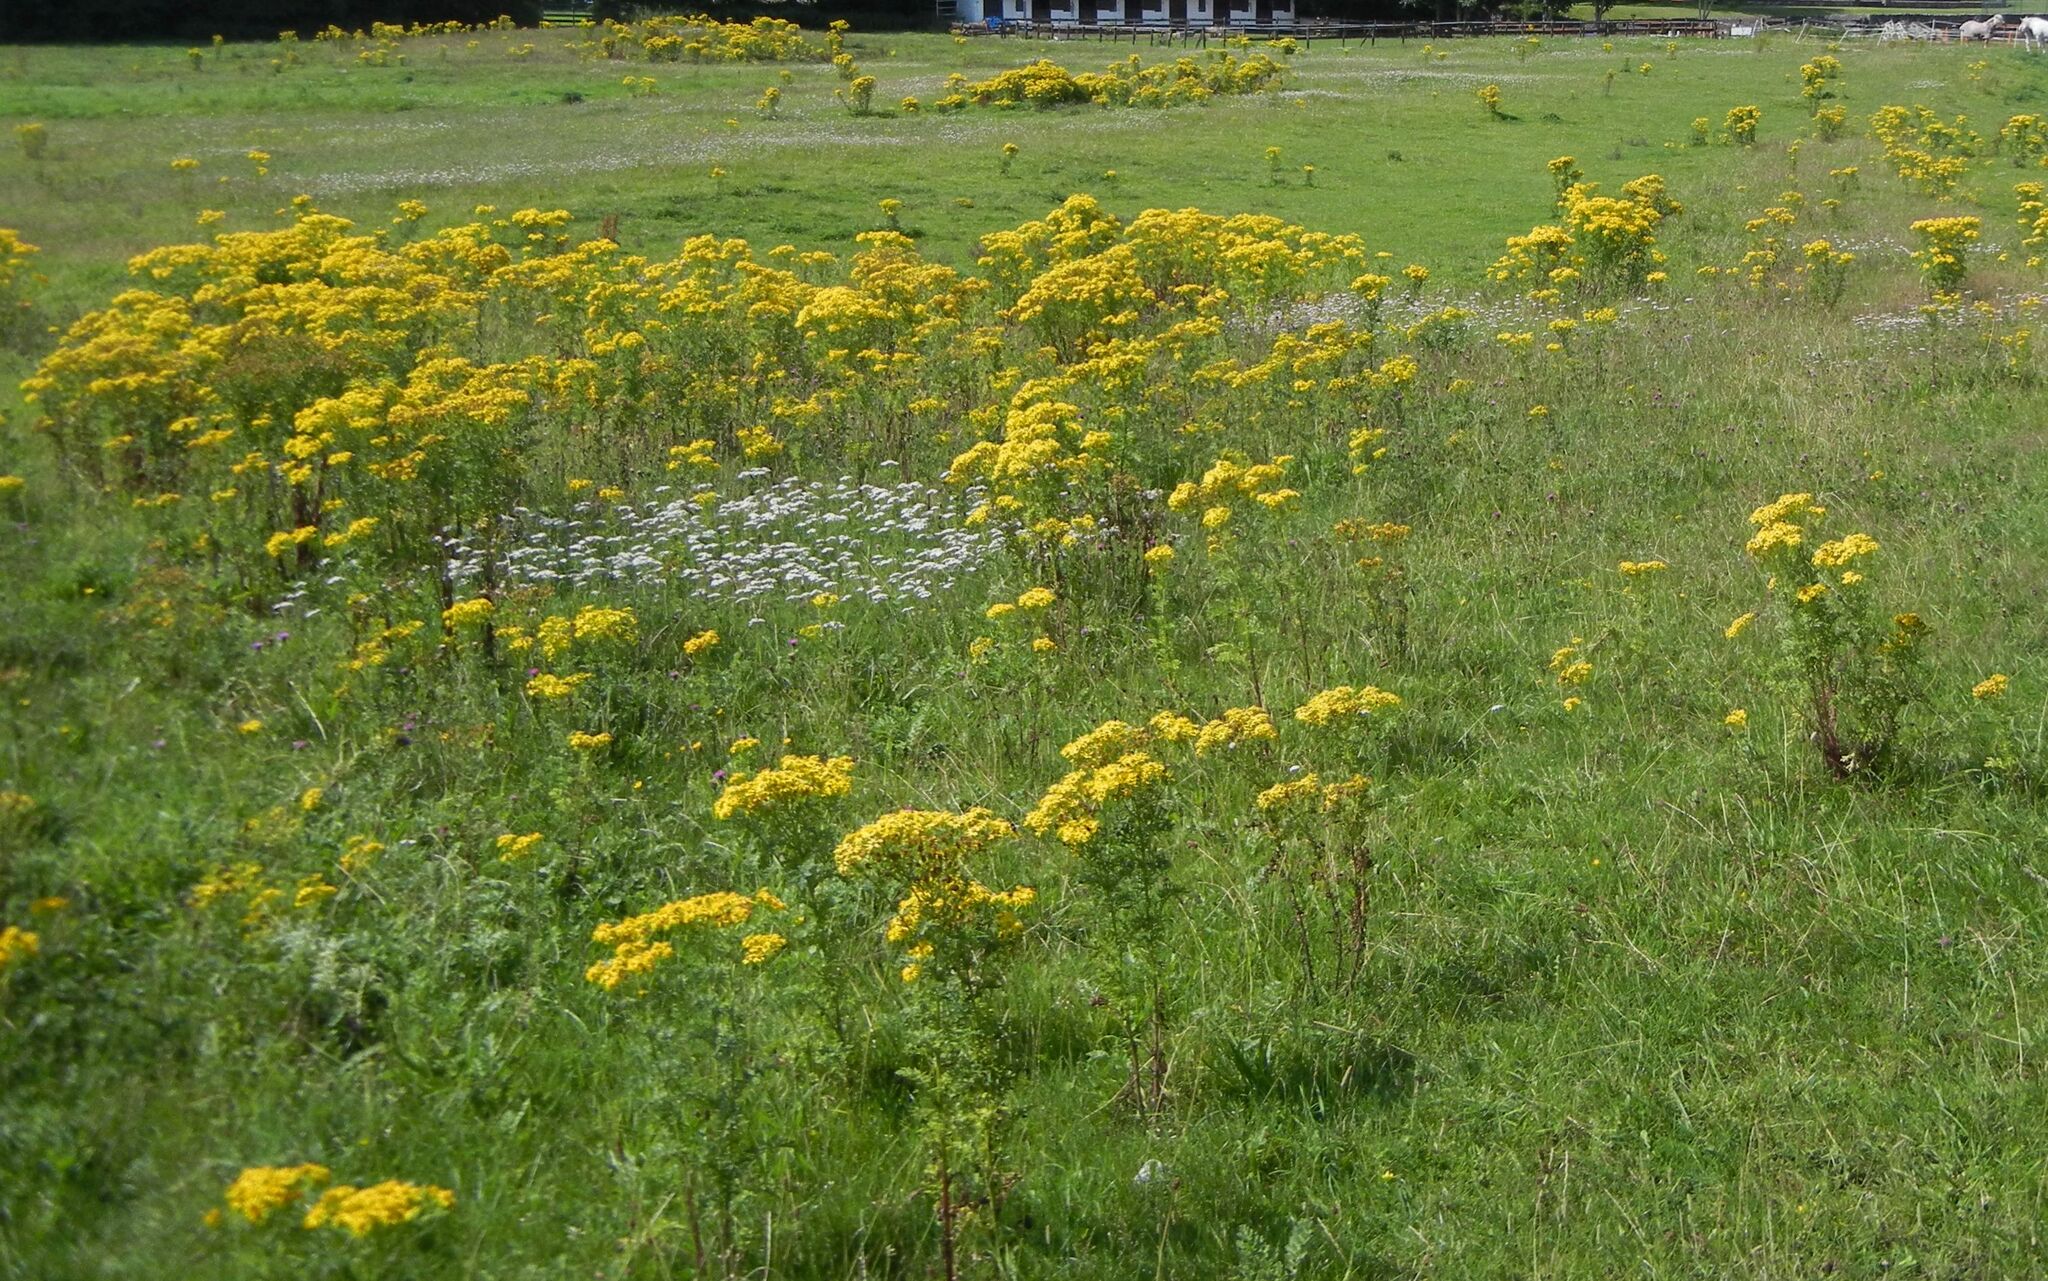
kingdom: Plantae
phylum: Tracheophyta
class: Magnoliopsida
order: Asterales
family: Asteraceae
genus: Jacobaea
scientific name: Jacobaea vulgaris
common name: Stinking willie
